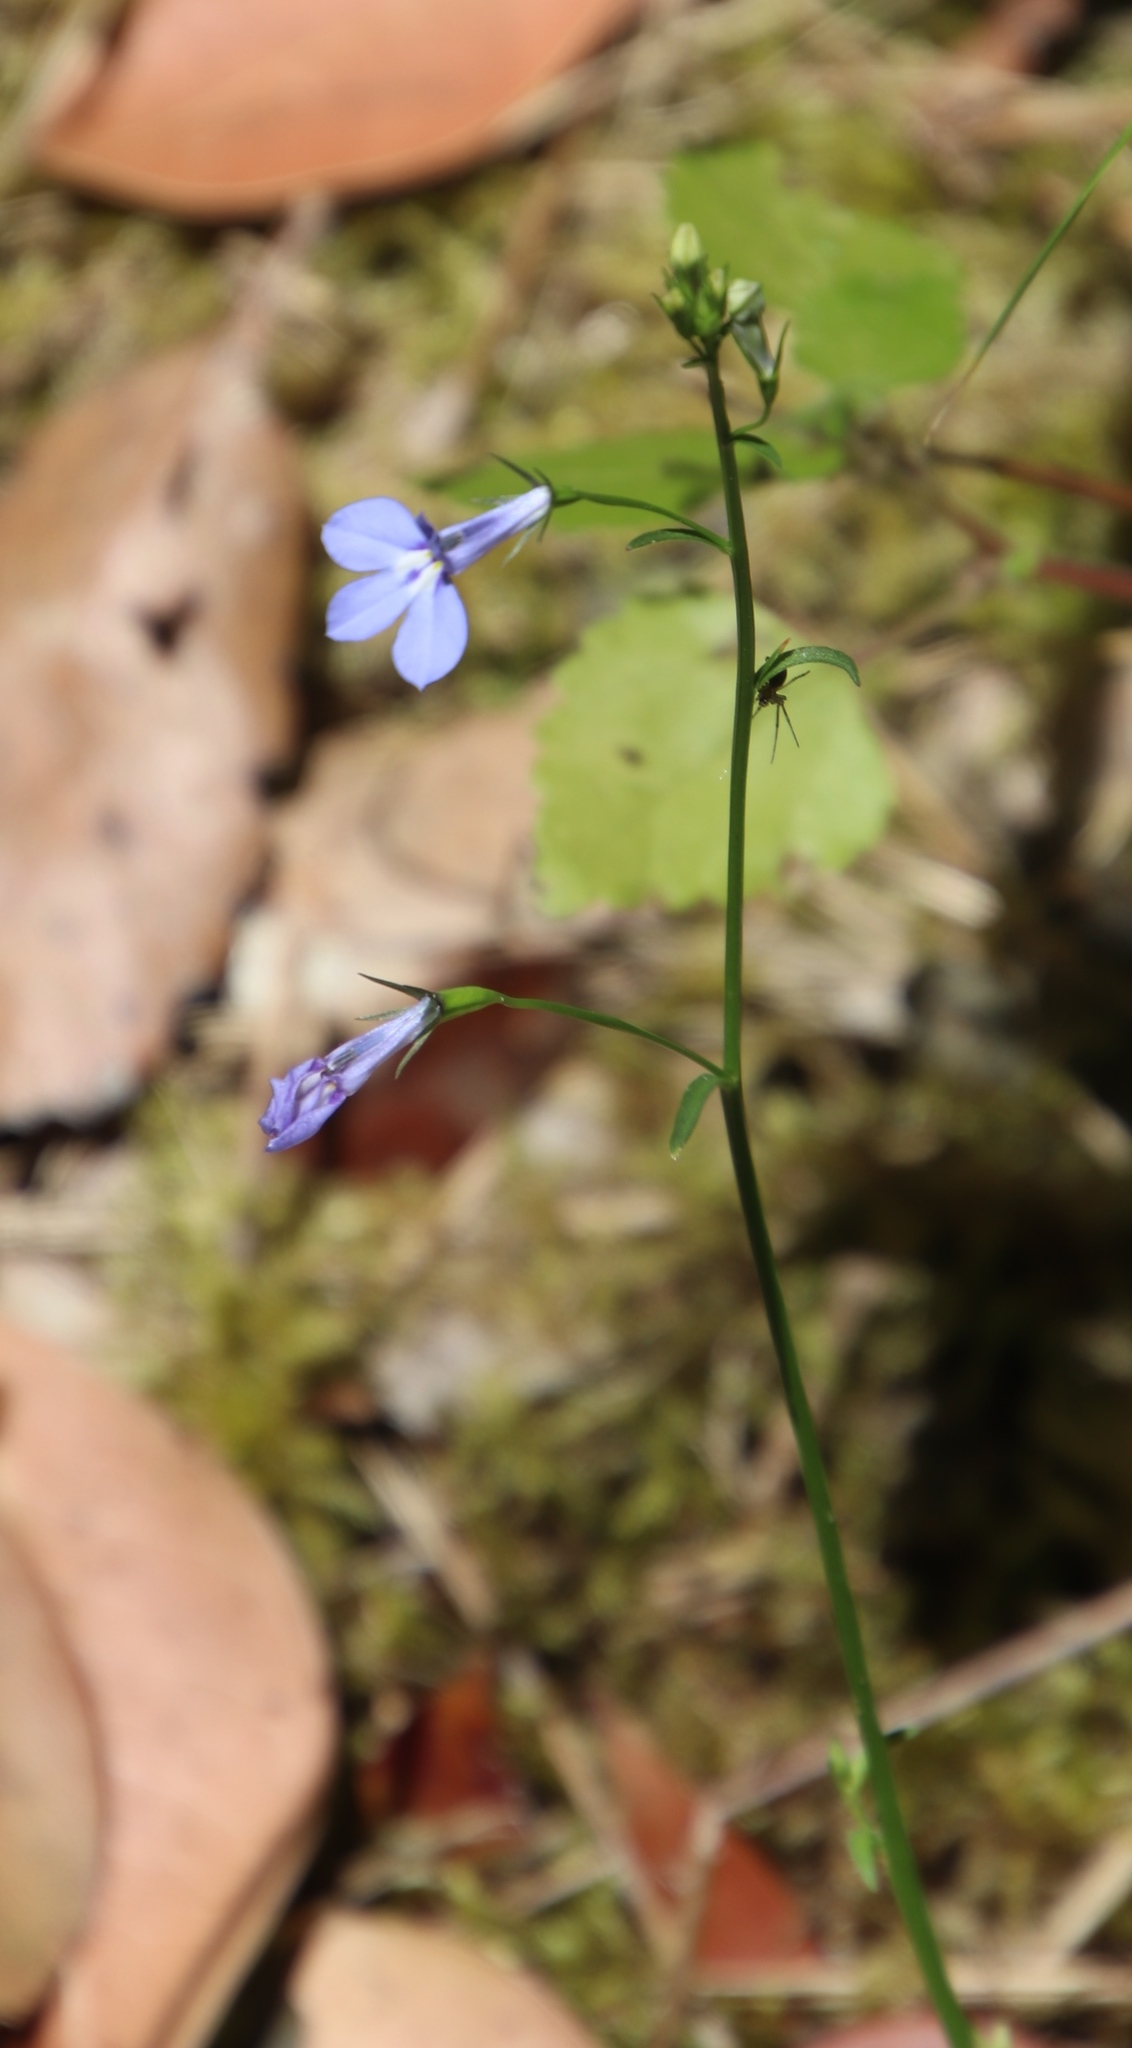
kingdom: Plantae
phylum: Tracheophyta
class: Magnoliopsida
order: Asterales
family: Campanulaceae
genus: Lobelia
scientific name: Lobelia erinus
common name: Edging lobelia
